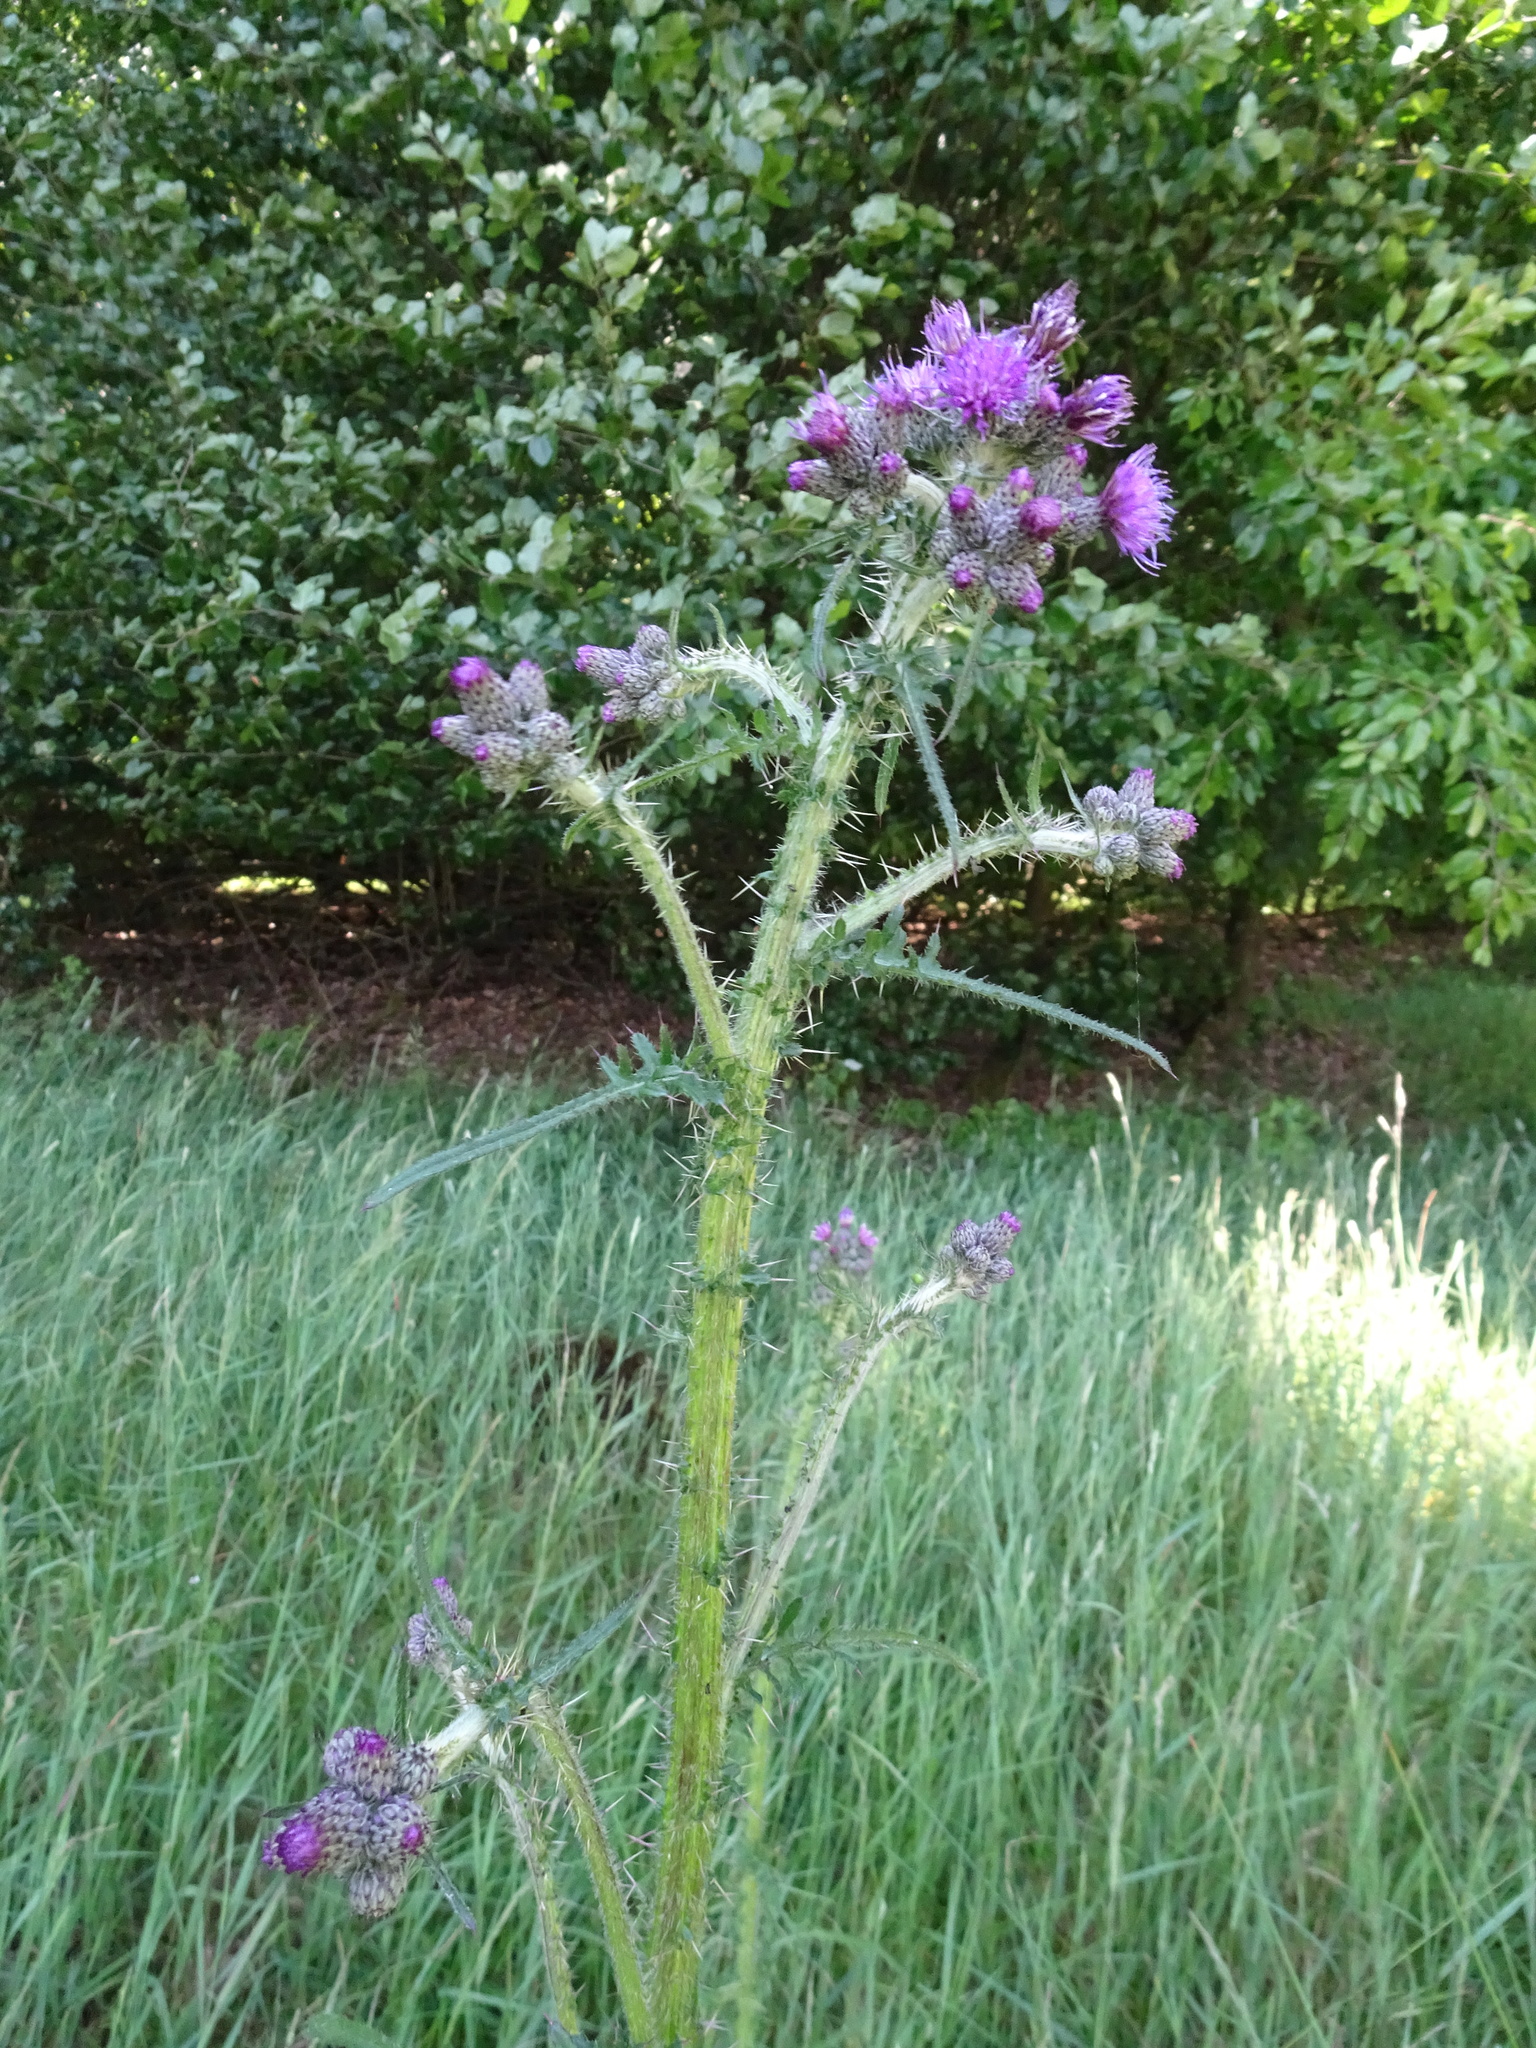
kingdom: Plantae
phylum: Tracheophyta
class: Magnoliopsida
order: Asterales
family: Asteraceae
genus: Cirsium
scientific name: Cirsium palustre
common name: Marsh thistle
